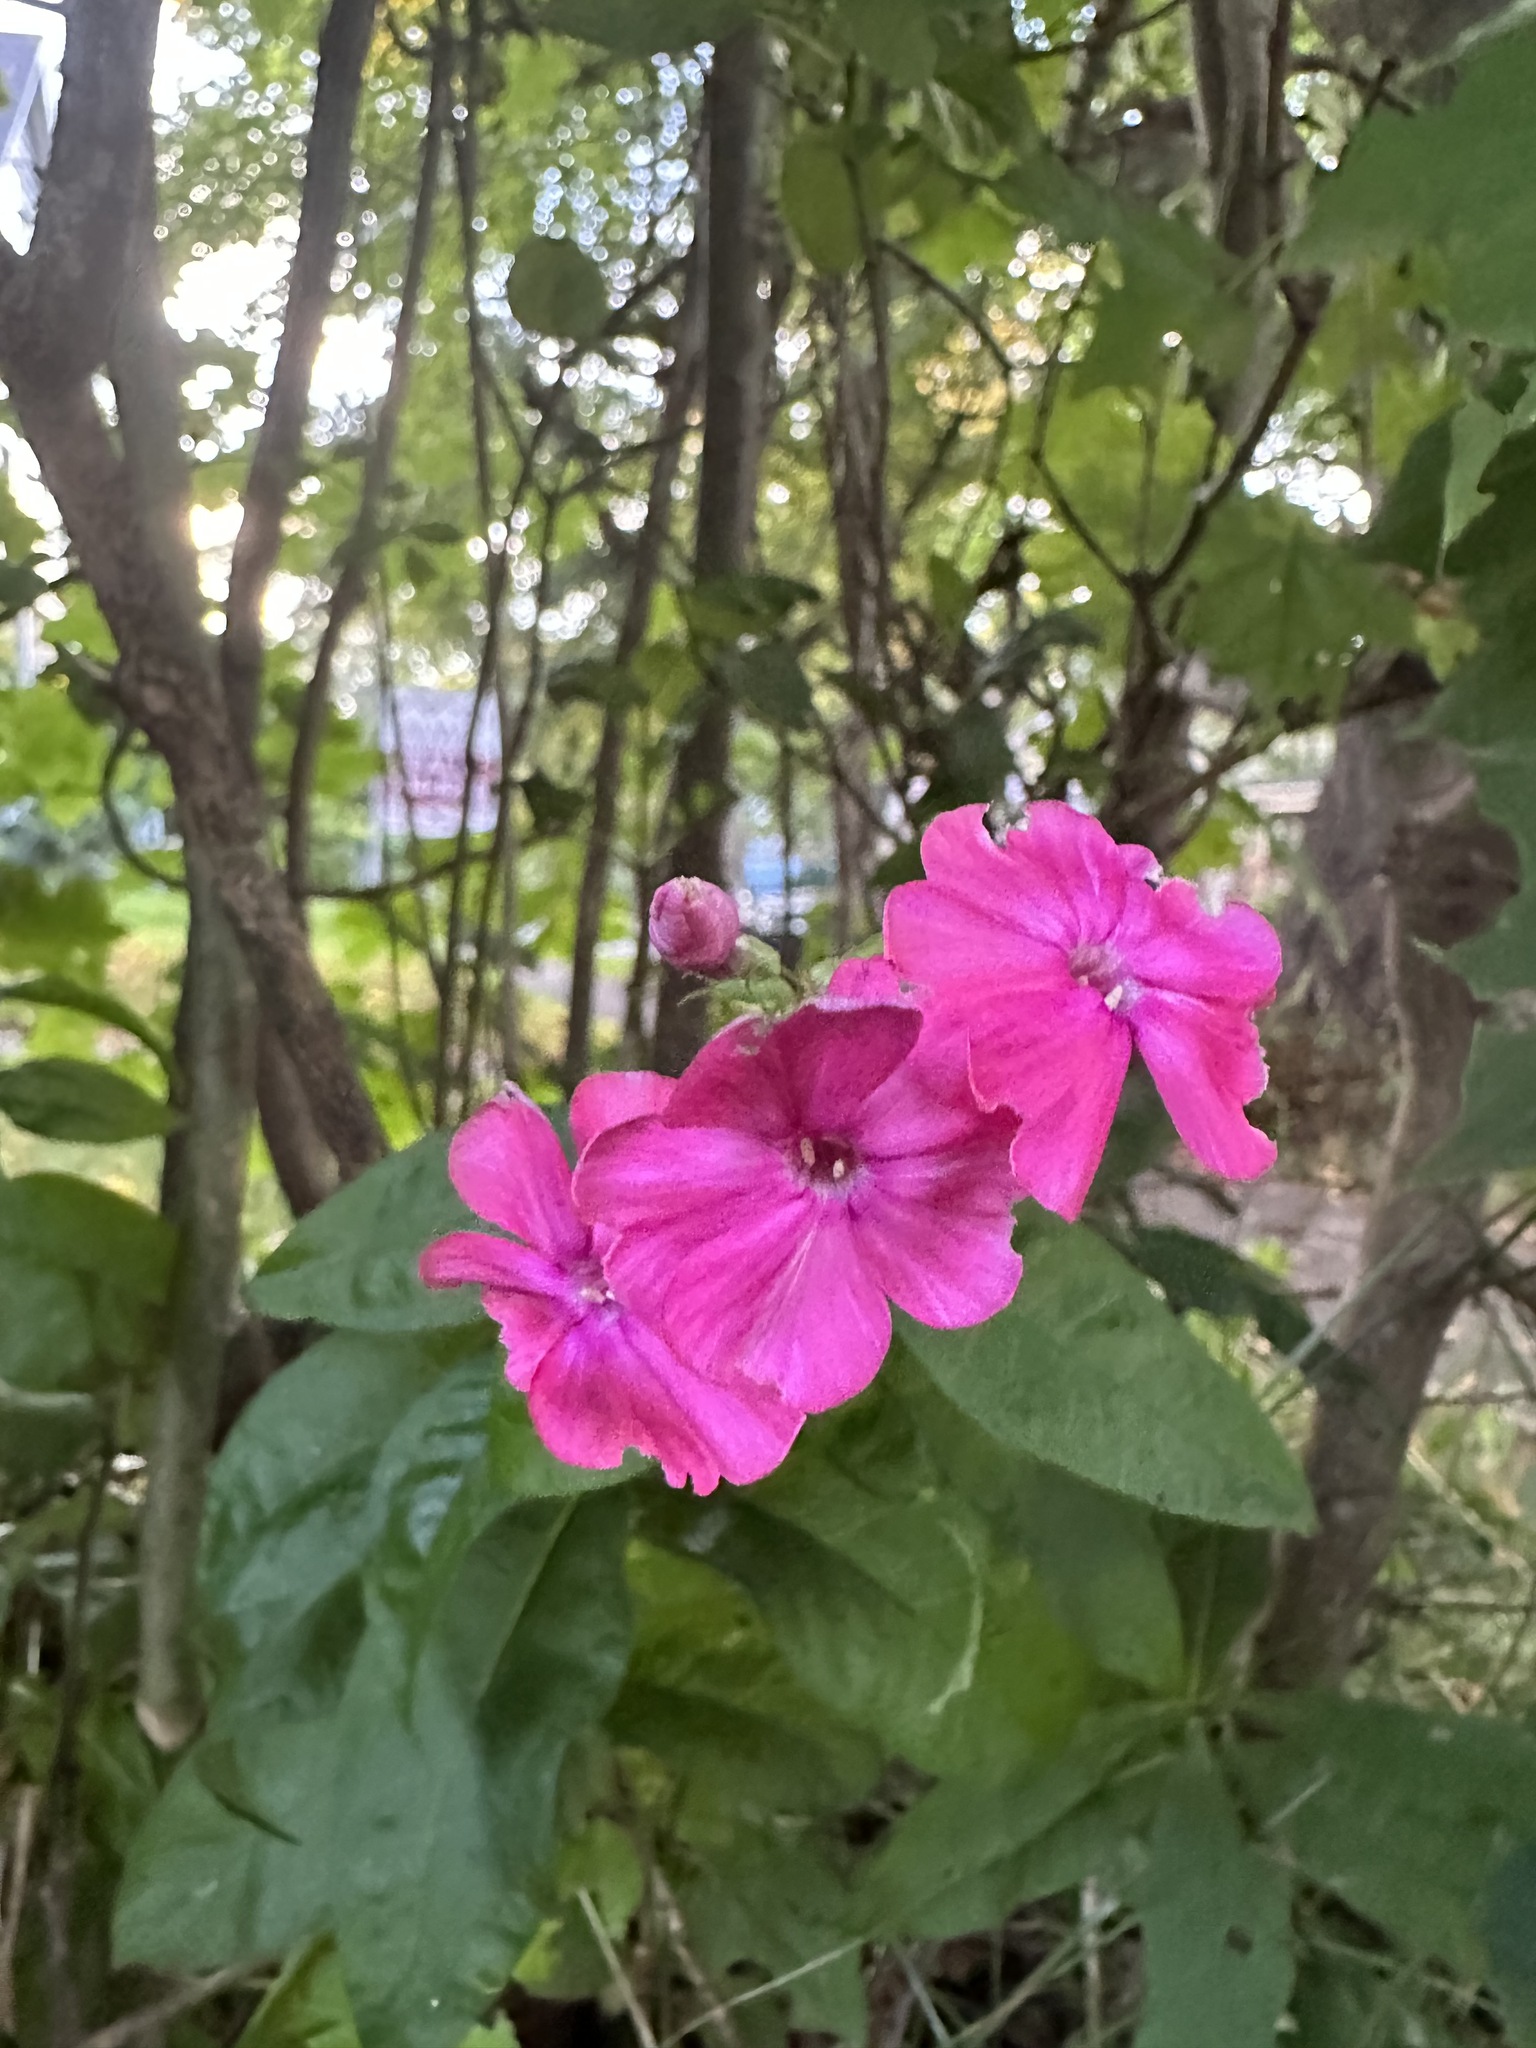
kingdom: Plantae
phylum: Tracheophyta
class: Magnoliopsida
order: Ericales
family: Polemoniaceae
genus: Phlox
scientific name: Phlox paniculata
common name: Fall phlox
